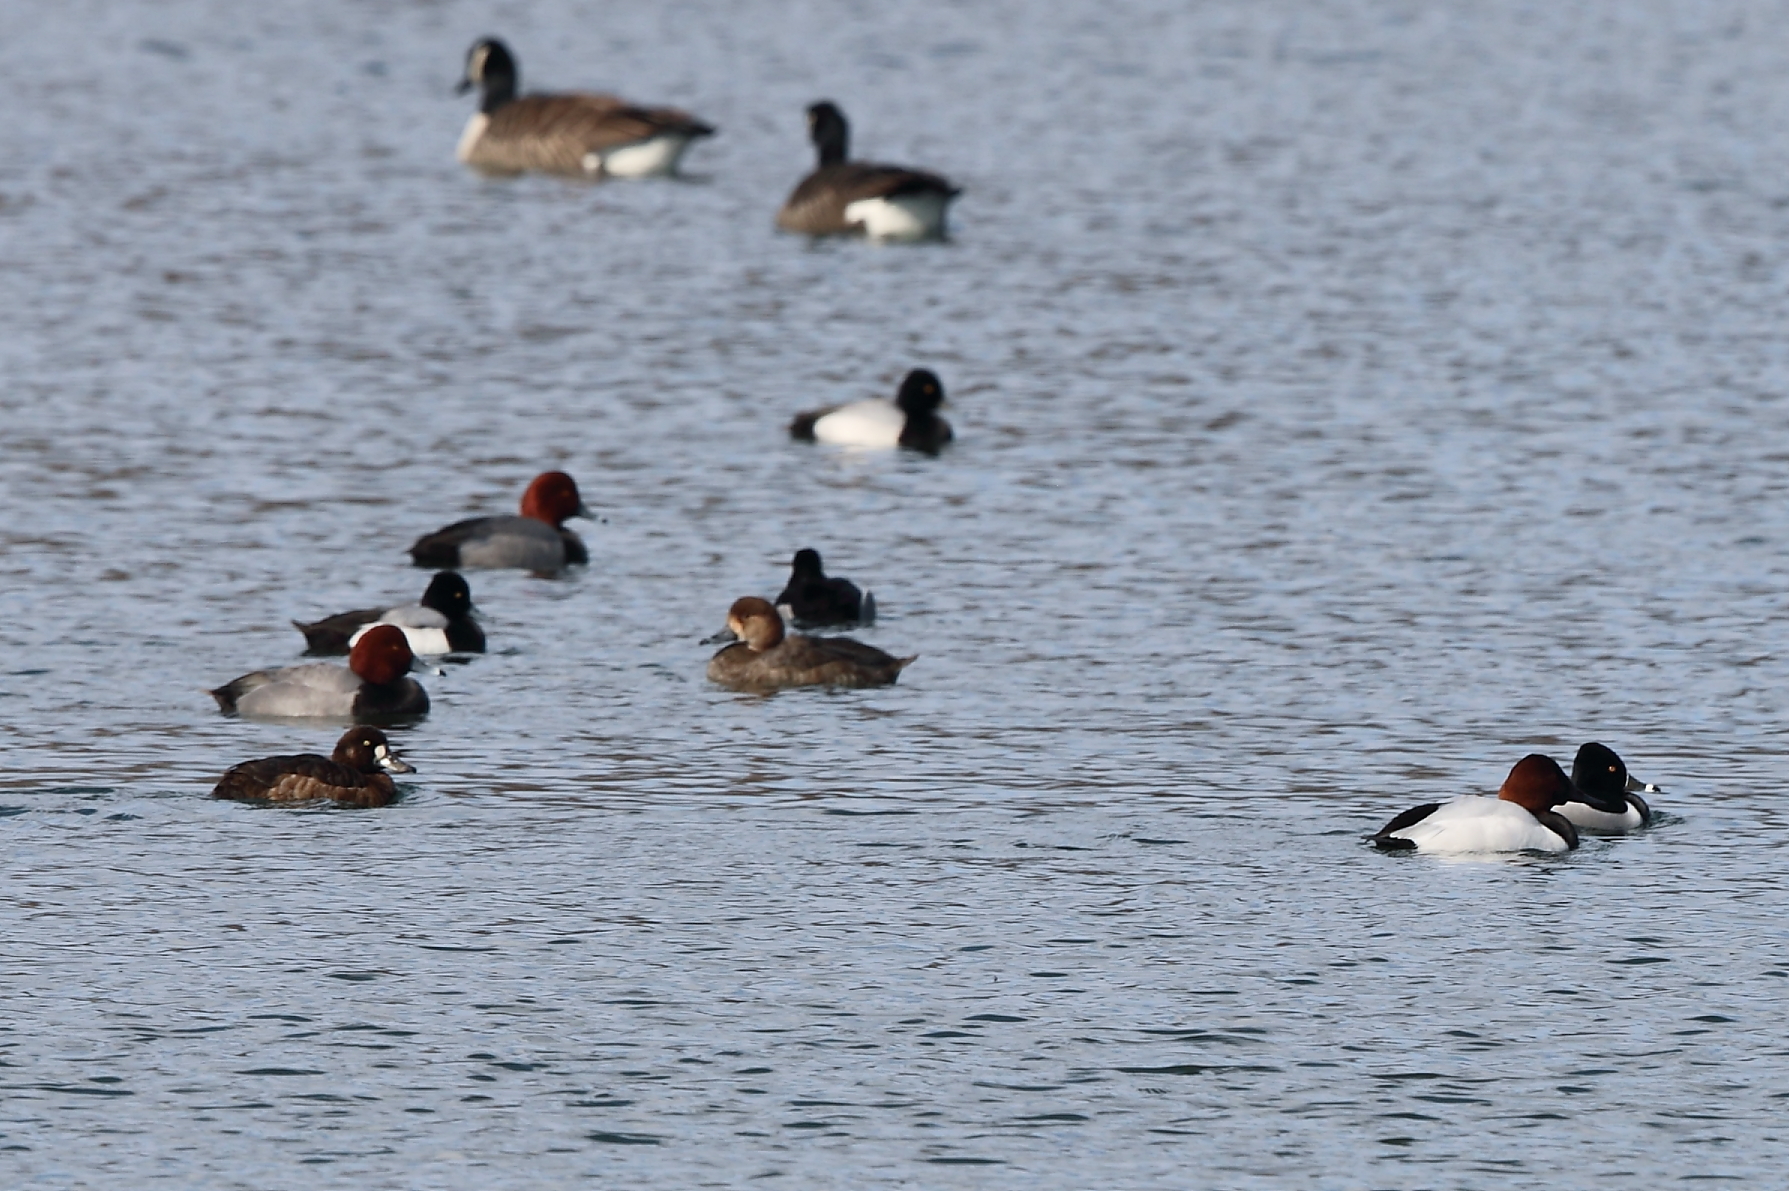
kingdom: Animalia
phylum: Chordata
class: Aves
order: Anseriformes
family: Anatidae
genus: Aythya
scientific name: Aythya valisineria
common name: Canvasback
